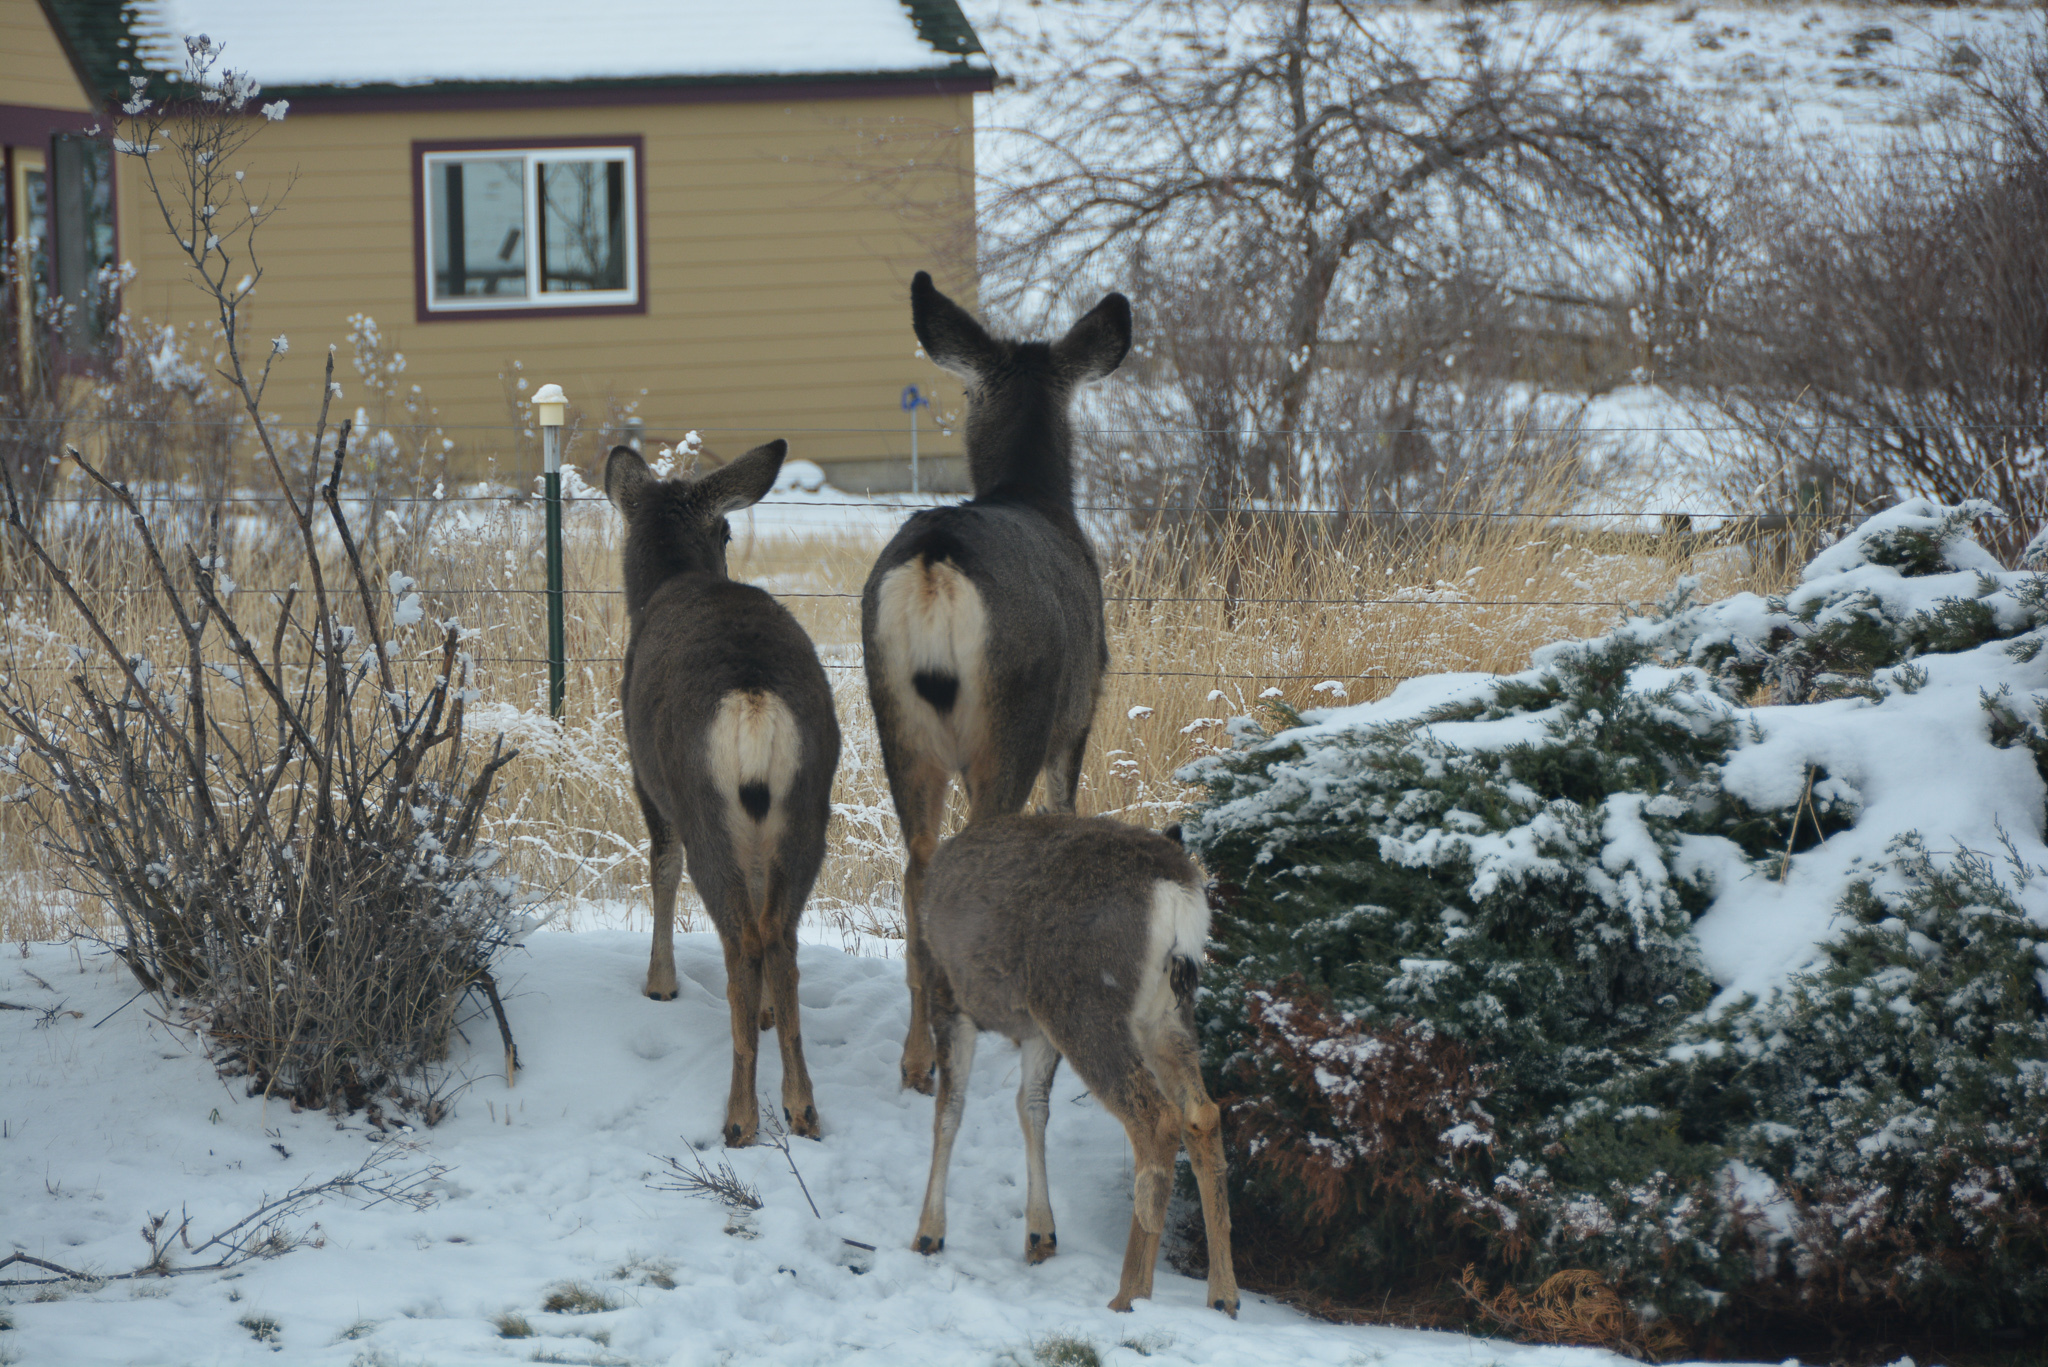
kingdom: Animalia
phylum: Chordata
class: Mammalia
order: Artiodactyla
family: Cervidae
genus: Odocoileus
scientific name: Odocoileus hemionus
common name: Mule deer
